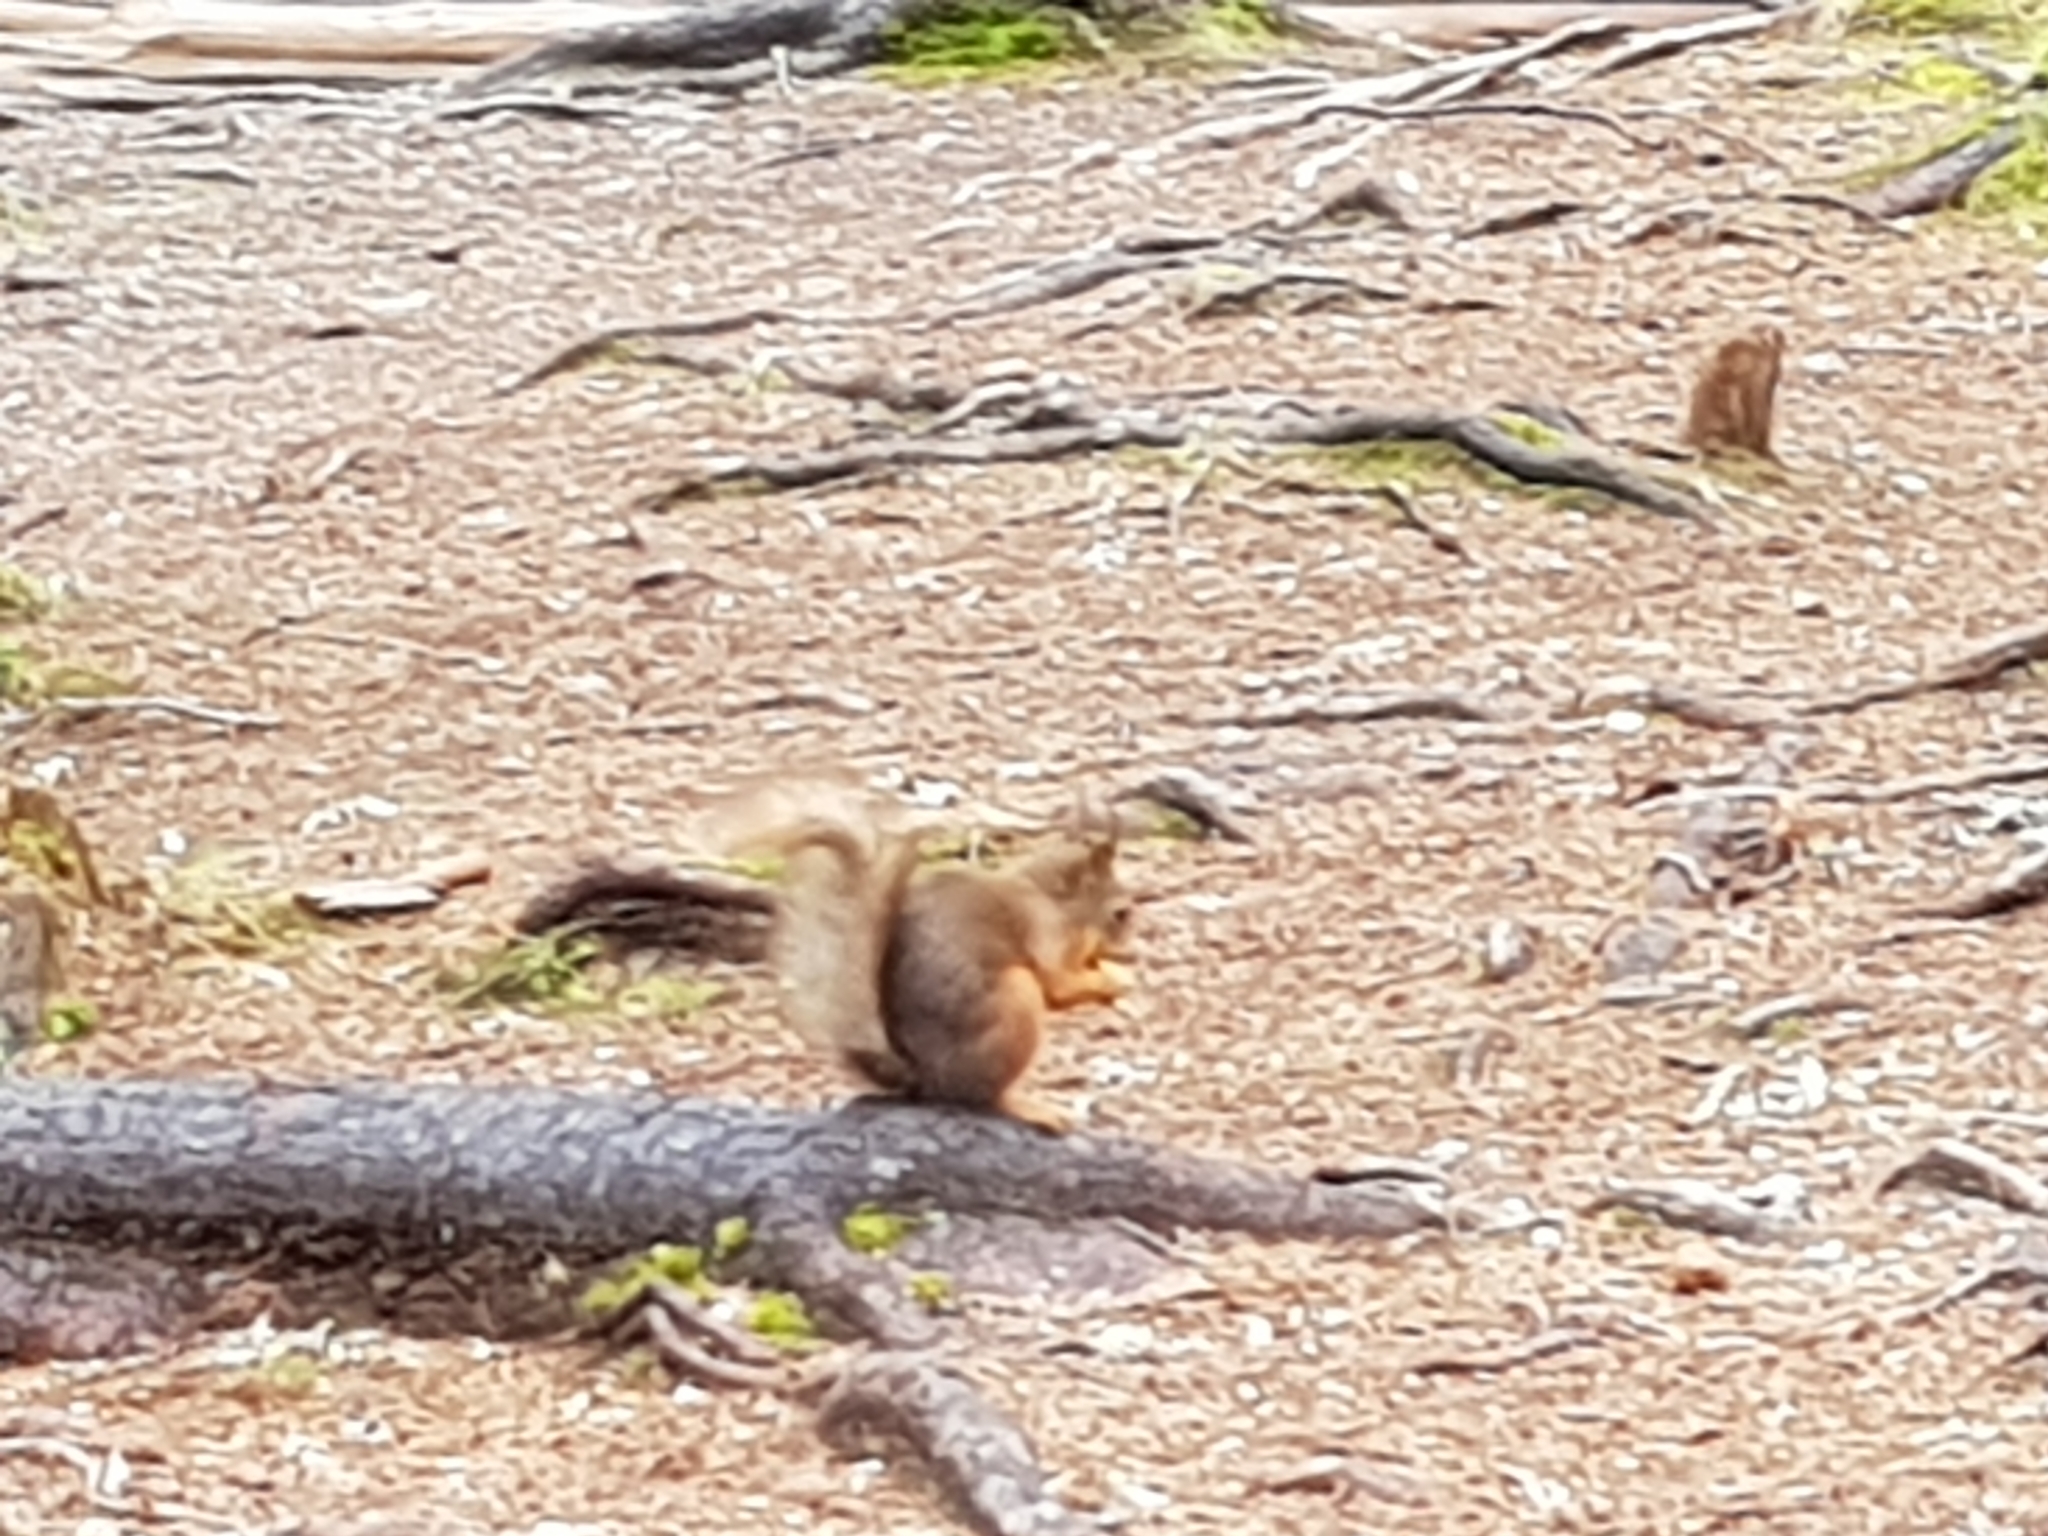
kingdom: Animalia
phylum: Chordata
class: Mammalia
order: Rodentia
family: Sciuridae
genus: Sciurus
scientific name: Sciurus vulgaris
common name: Eurasian red squirrel
